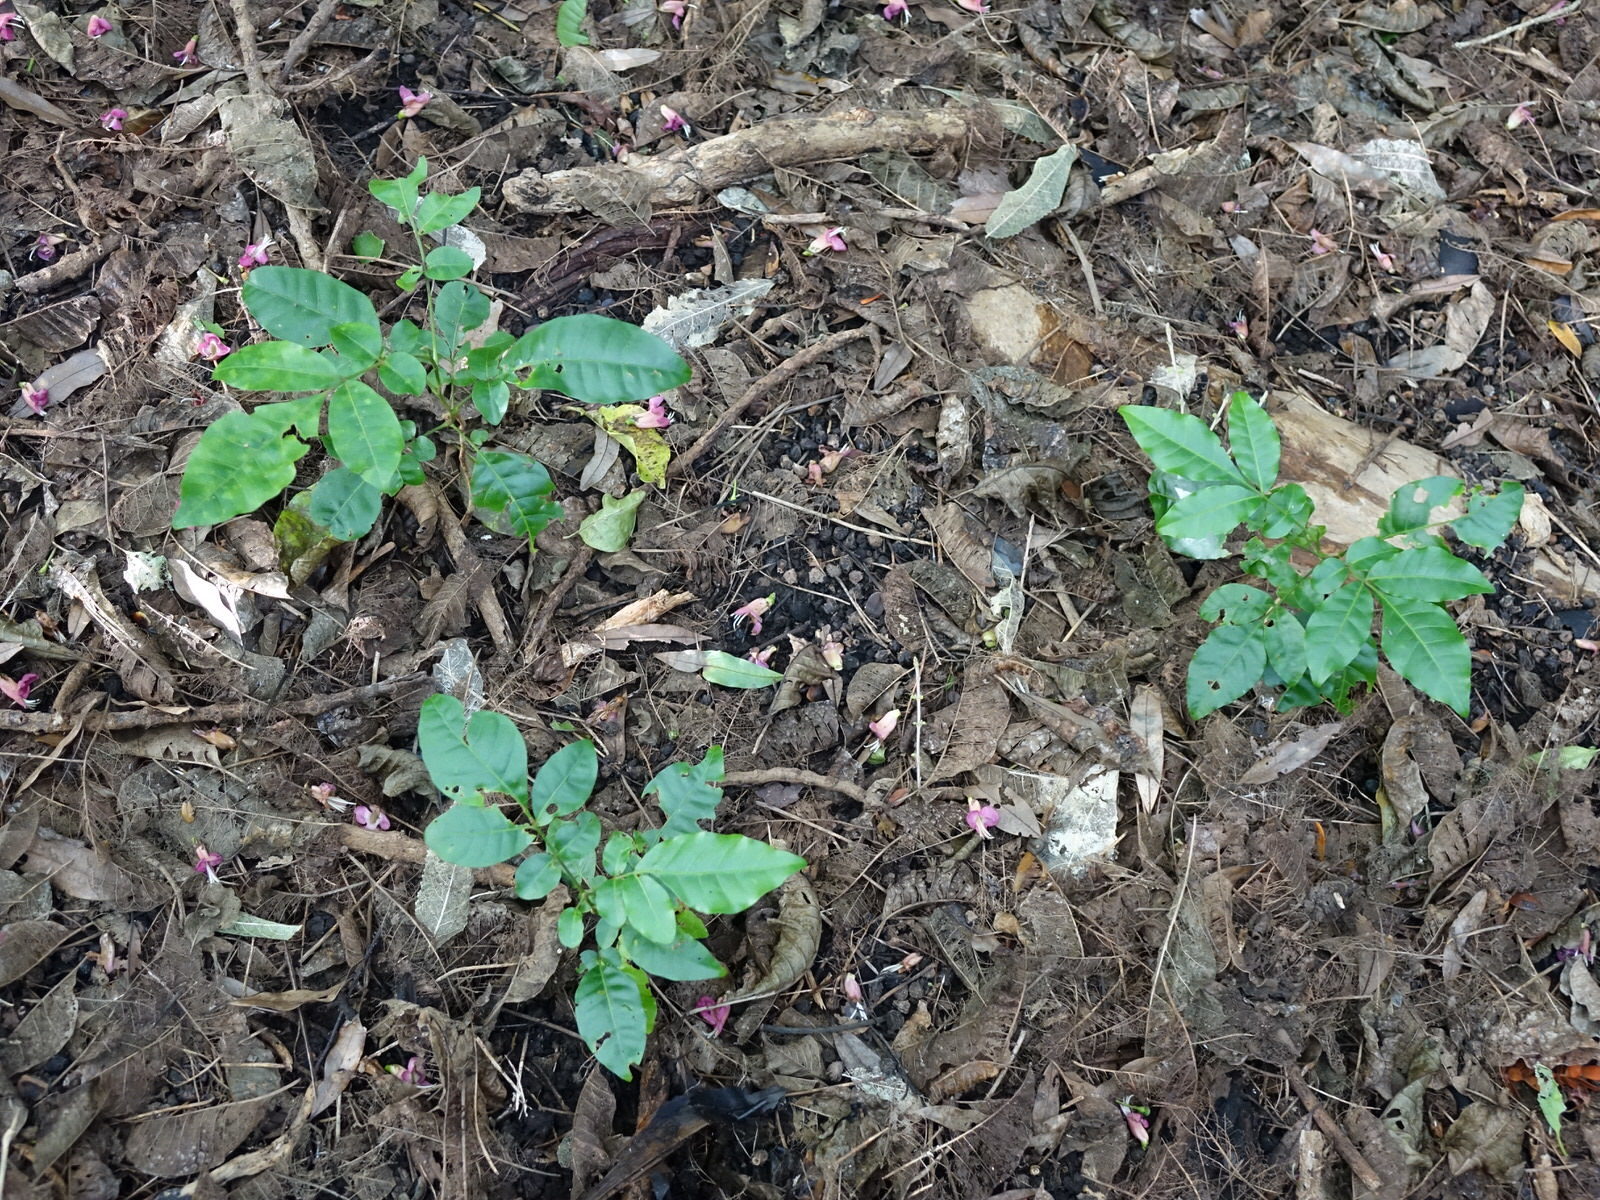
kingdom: Plantae
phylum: Tracheophyta
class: Magnoliopsida
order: Lamiales
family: Lamiaceae
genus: Vitex
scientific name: Vitex lucens
